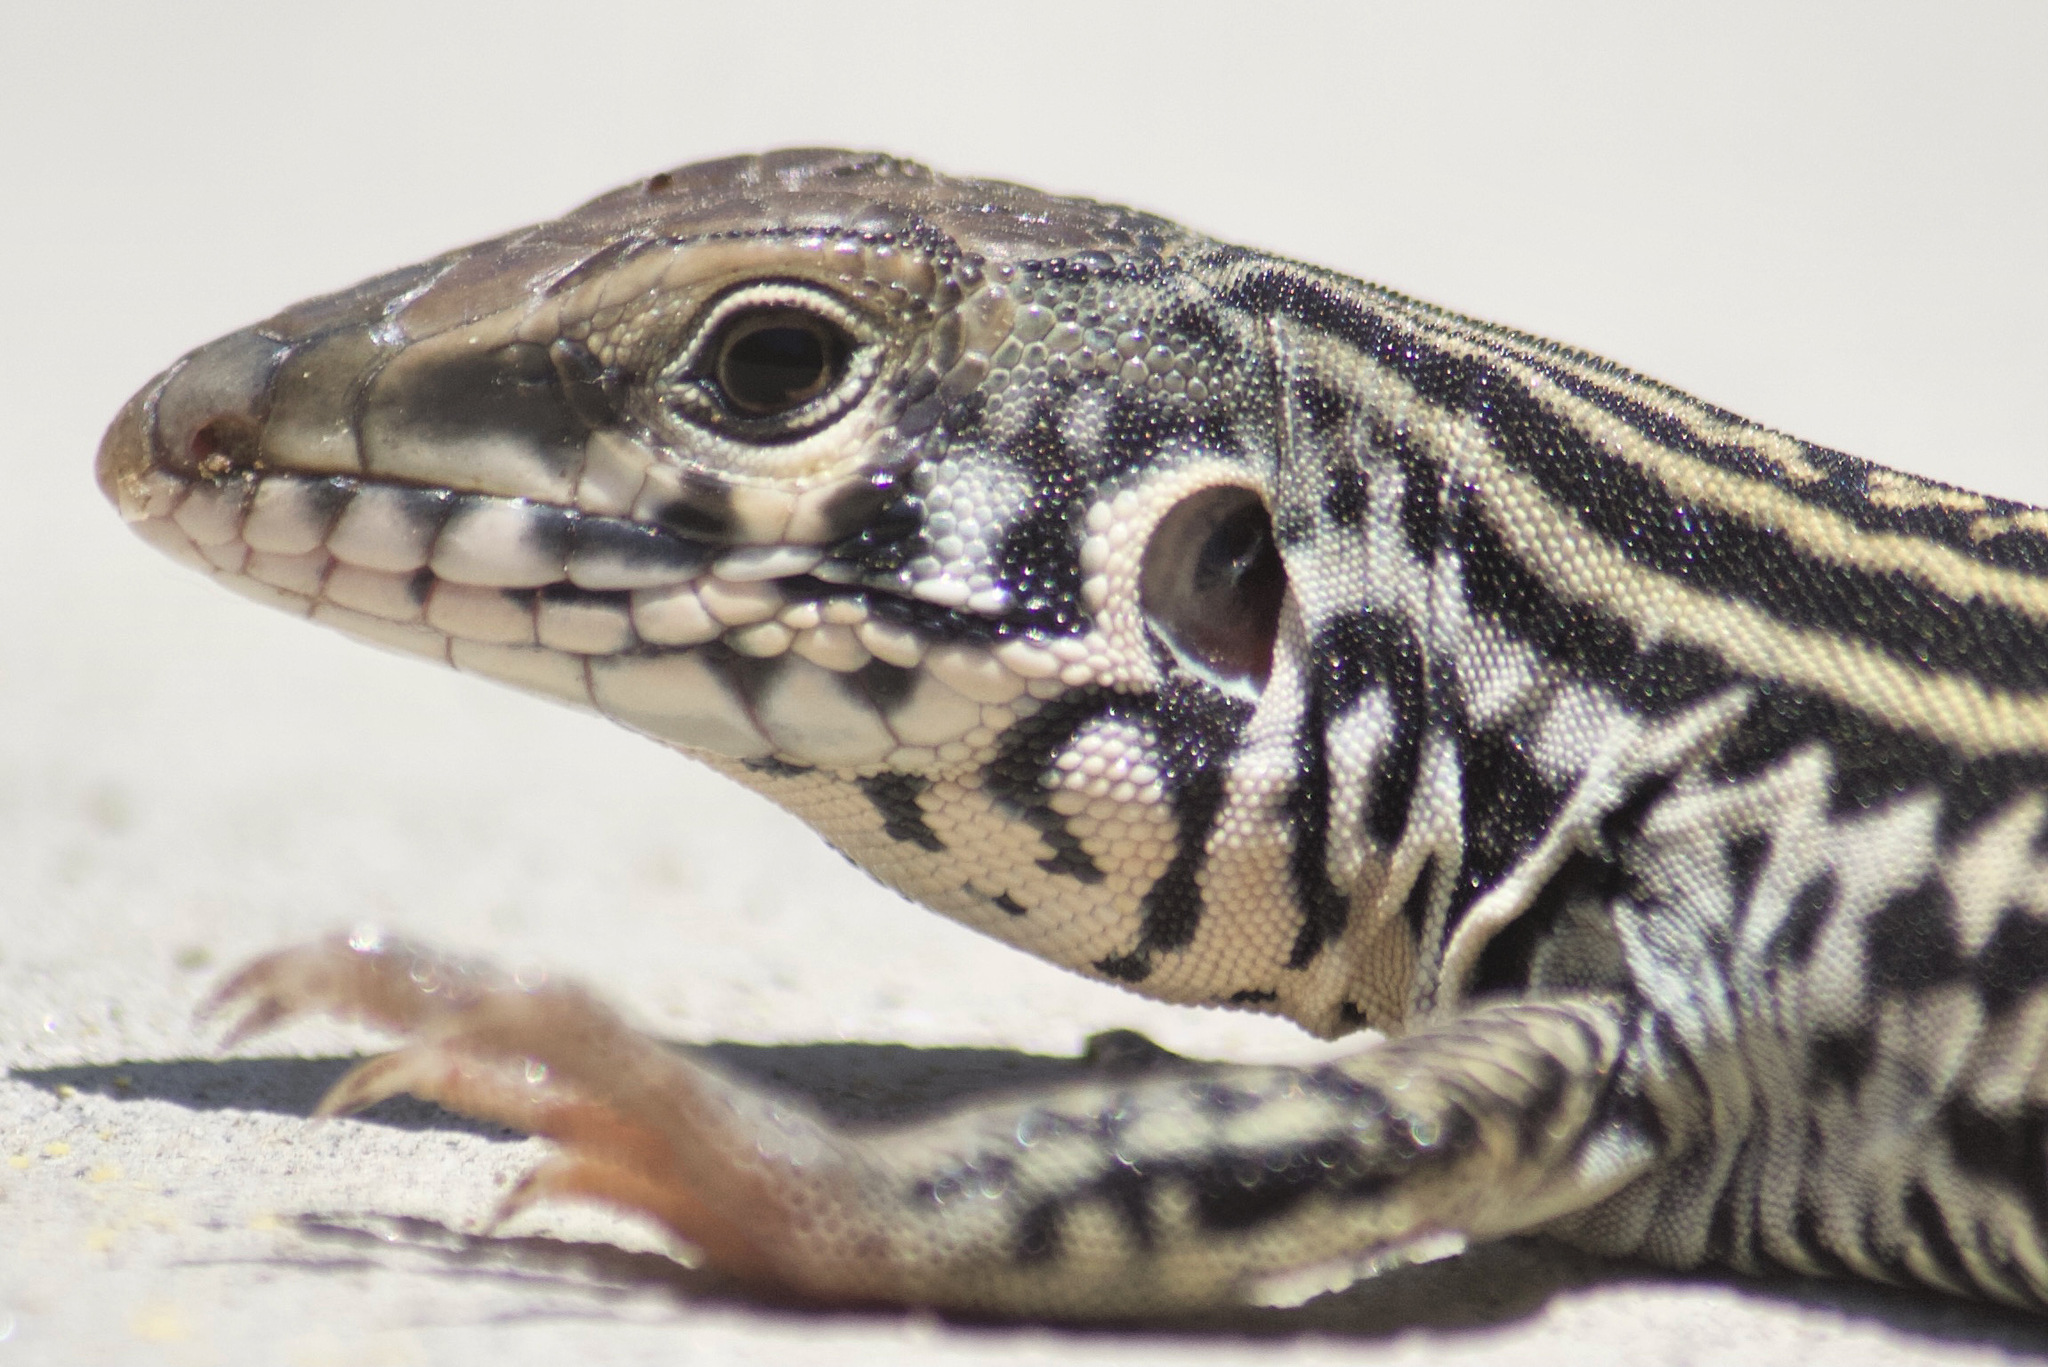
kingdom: Animalia
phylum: Chordata
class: Squamata
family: Teiidae
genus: Aspidoscelis
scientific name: Aspidoscelis tigris
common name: Tiger whiptail
